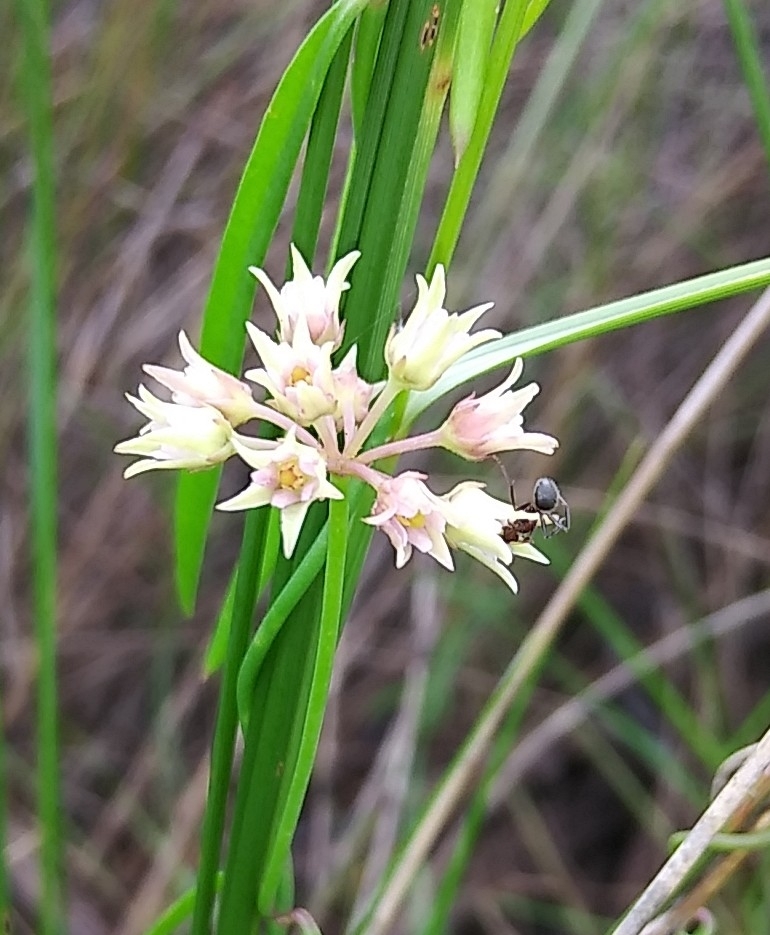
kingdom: Plantae
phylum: Tracheophyta
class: Magnoliopsida
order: Gentianales
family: Apocynaceae
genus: Pattalias
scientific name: Pattalias
